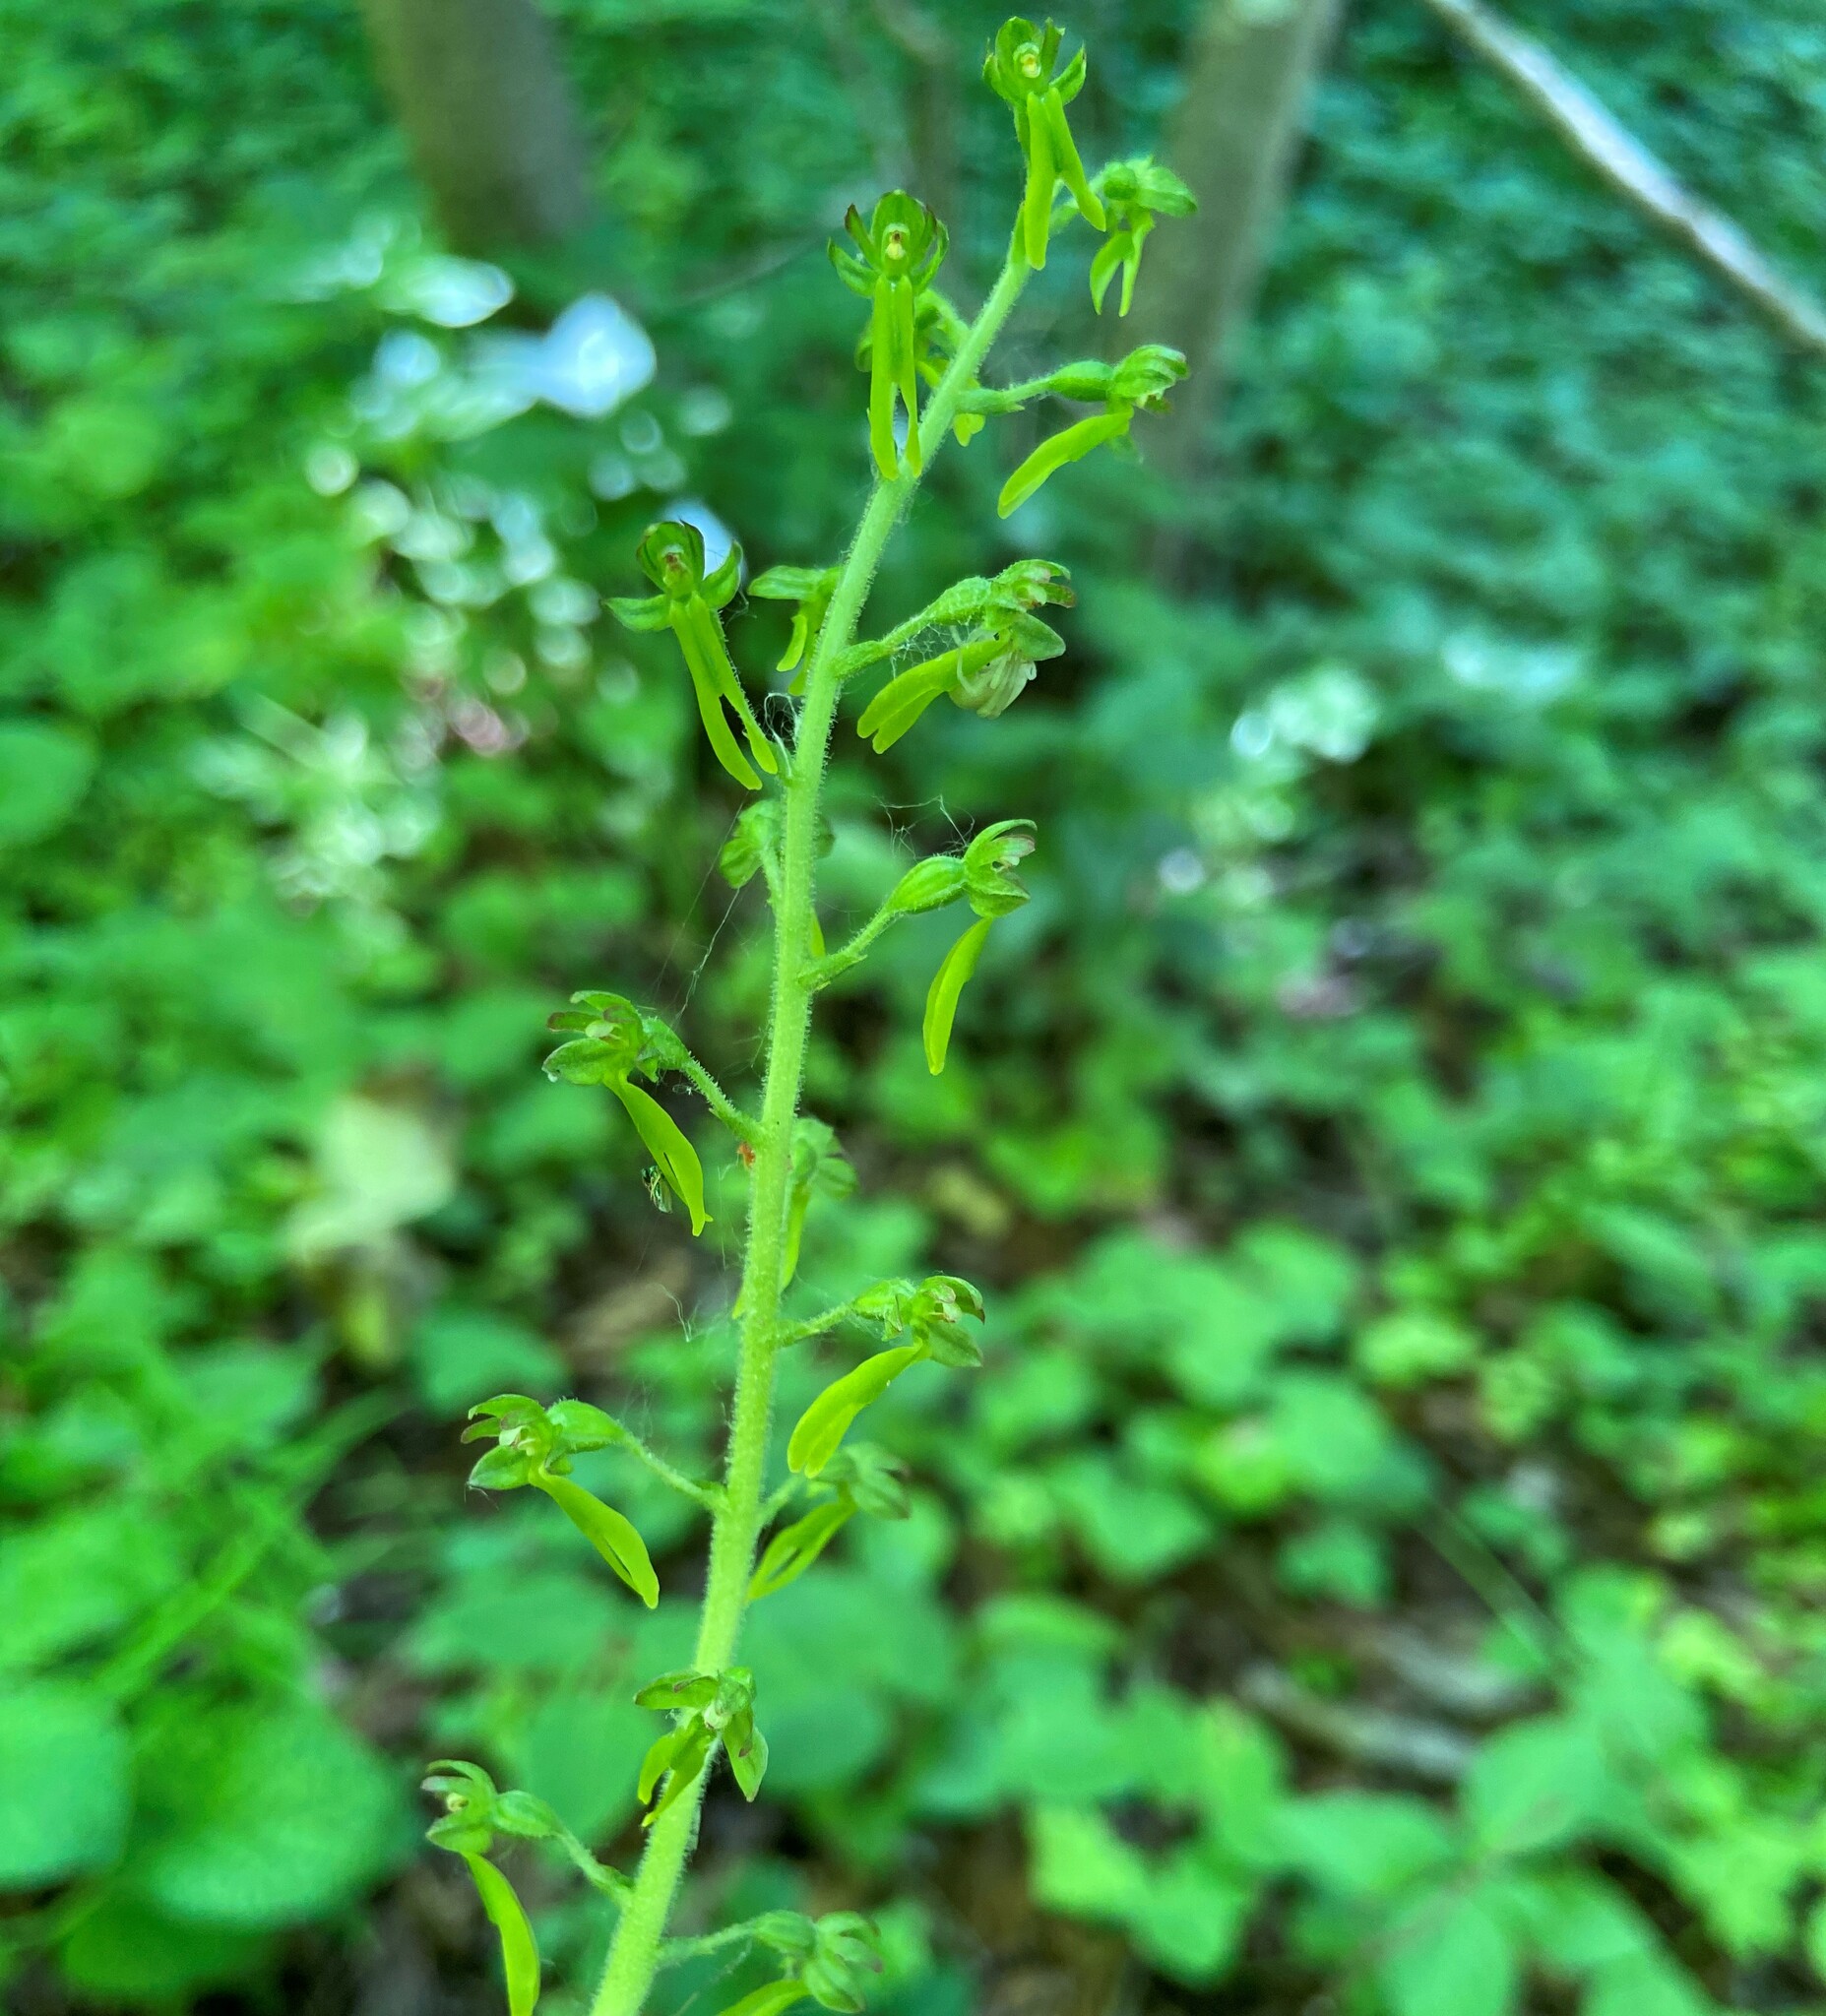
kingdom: Plantae
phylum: Tracheophyta
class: Liliopsida
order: Asparagales
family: Orchidaceae
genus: Neottia
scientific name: Neottia ovata
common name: Common twayblade
